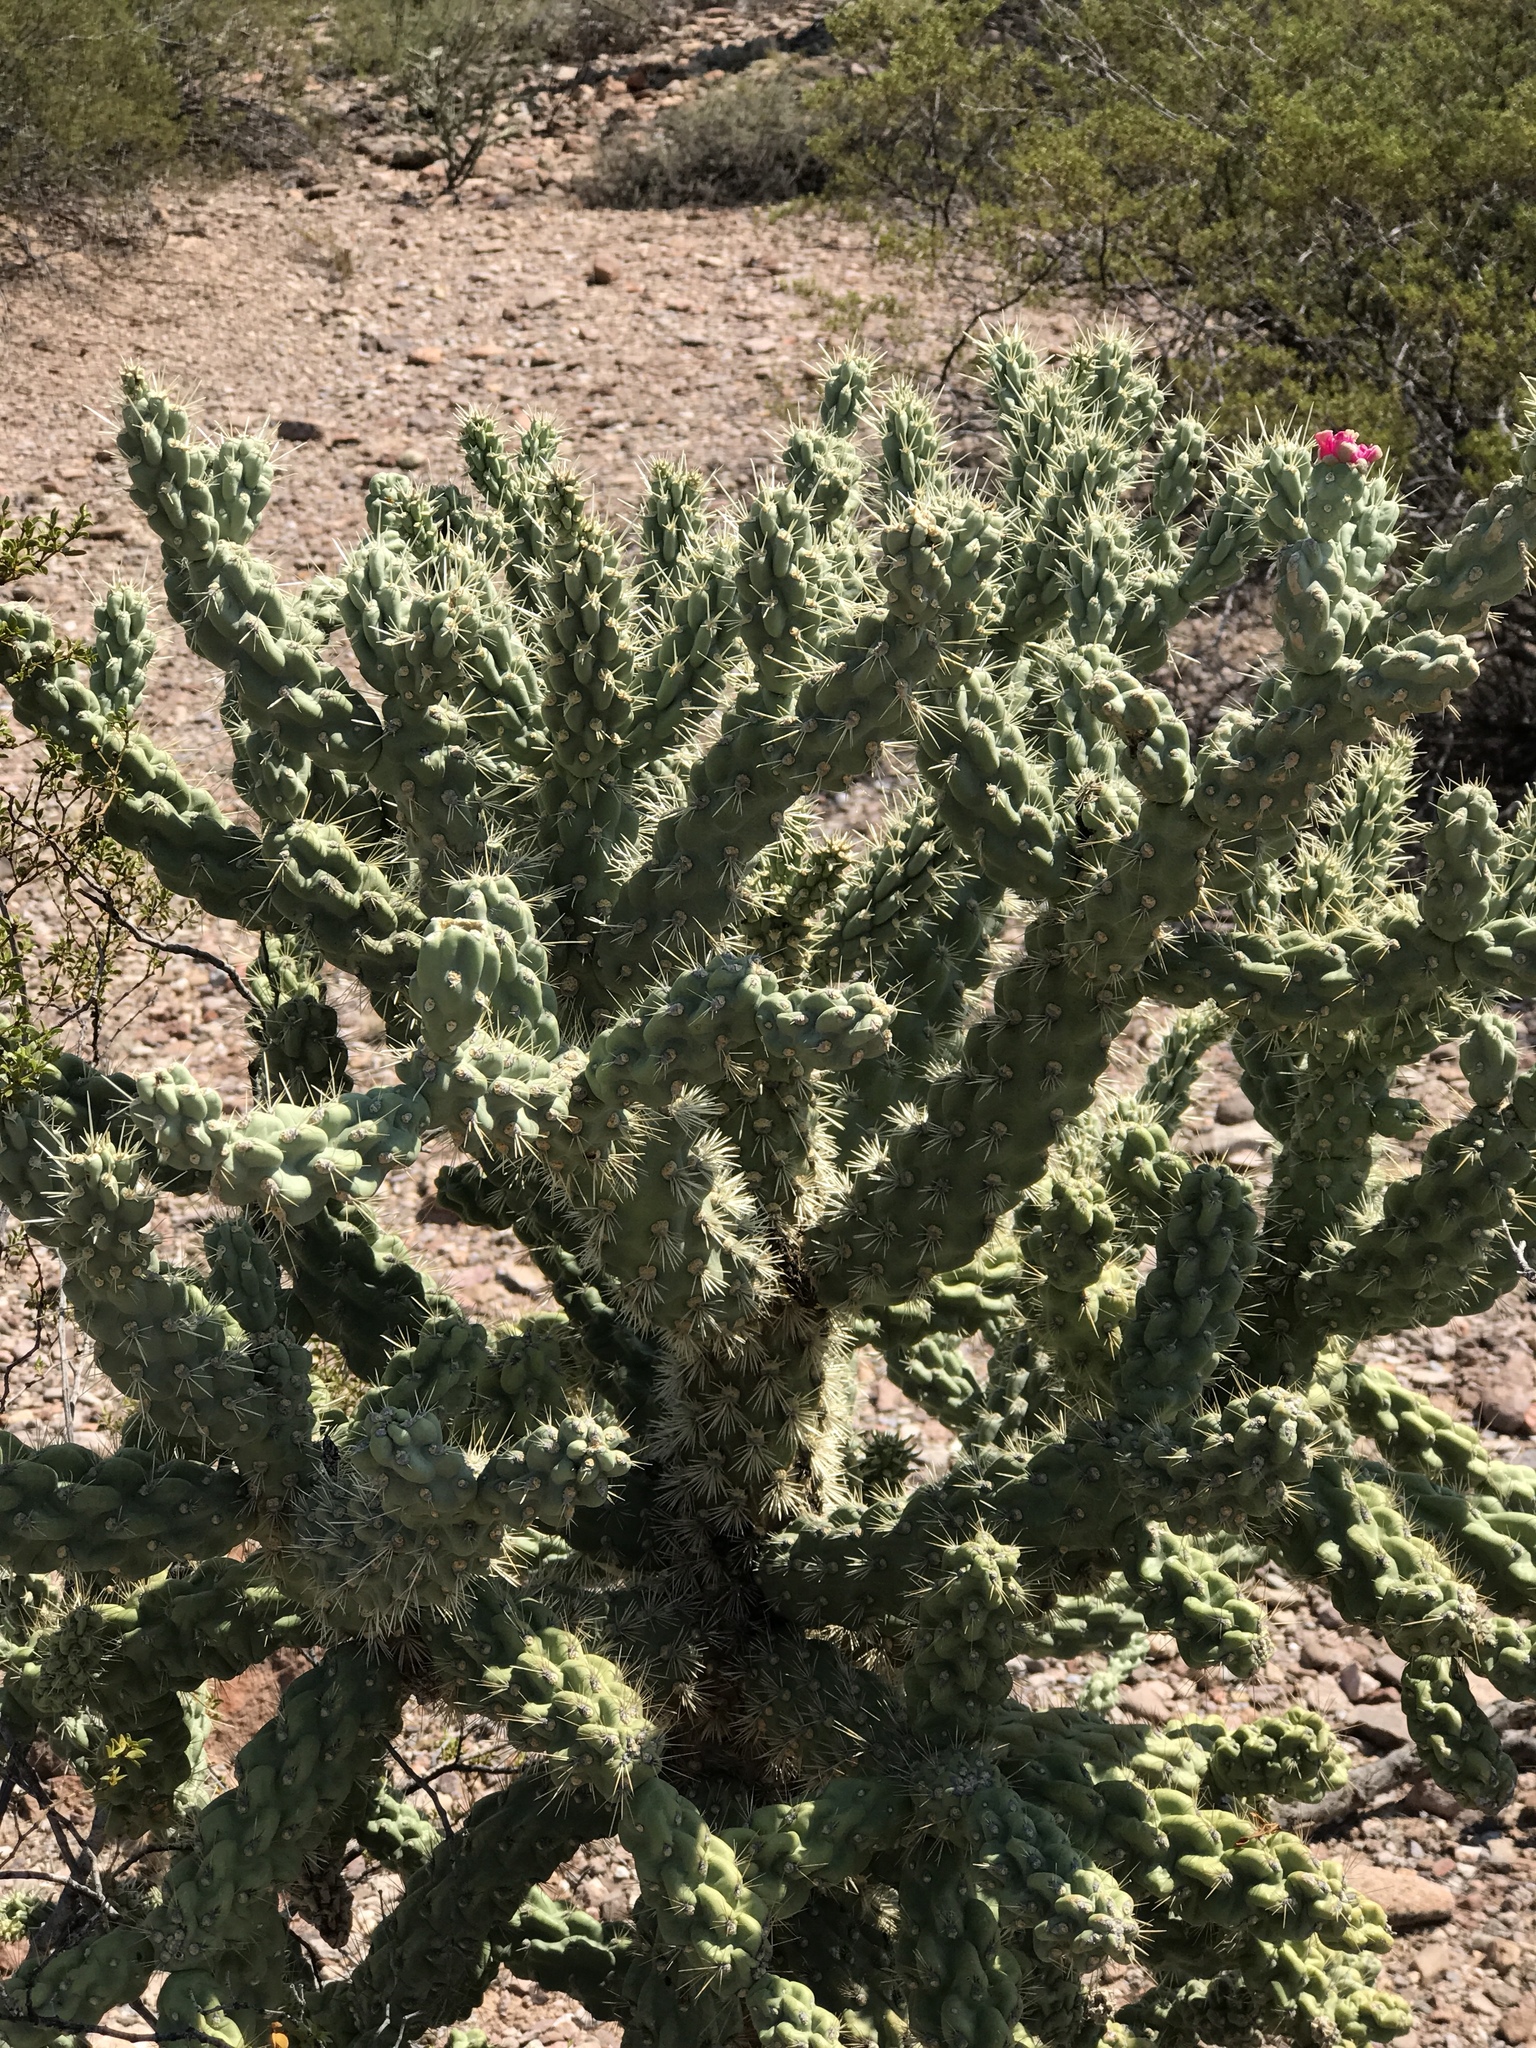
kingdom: Plantae
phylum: Tracheophyta
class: Magnoliopsida
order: Caryophyllales
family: Cactaceae
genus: Cylindropuntia
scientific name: Cylindropuntia fulgida
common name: Jumping cholla
